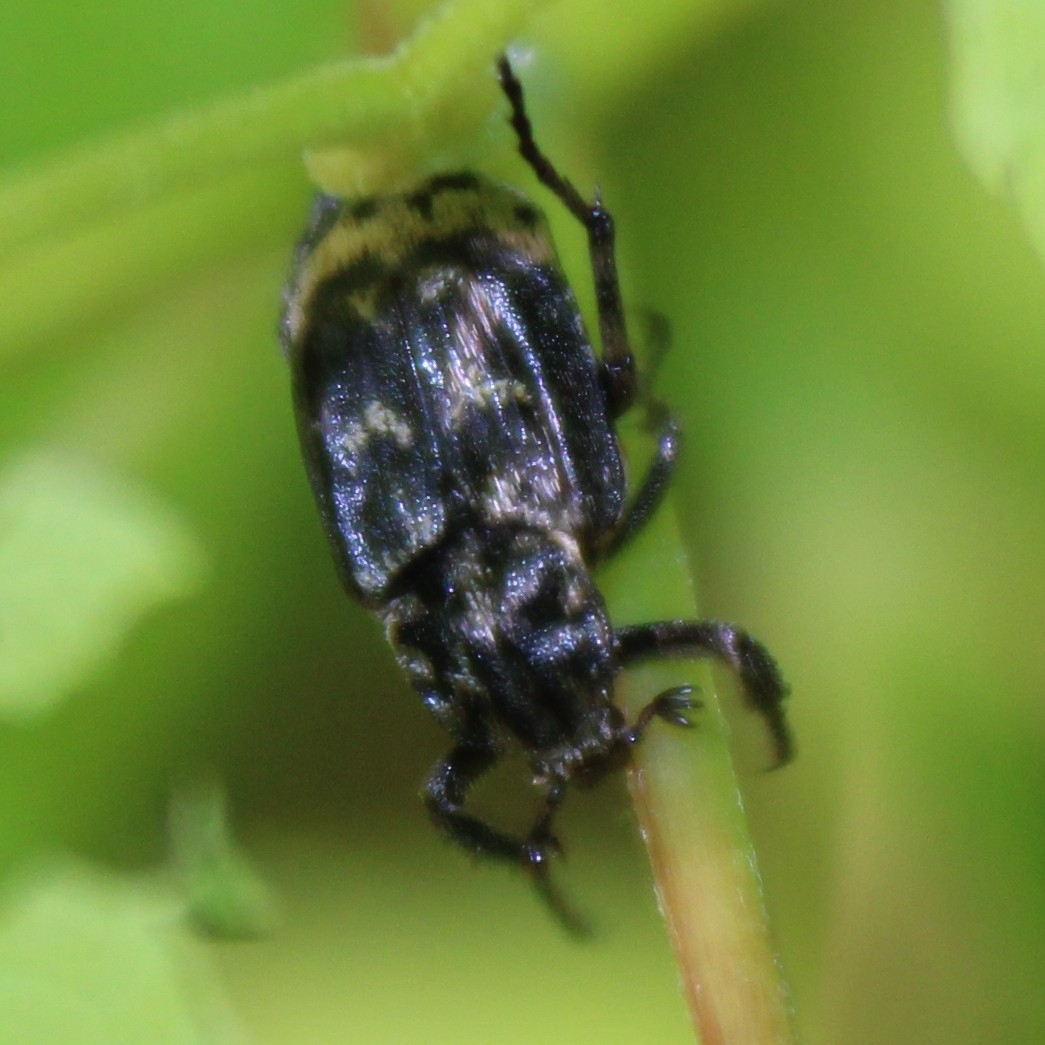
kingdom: Animalia
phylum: Arthropoda
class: Insecta
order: Coleoptera
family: Scarabaeidae
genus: Valgus
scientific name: Valgus hemipterus
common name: Bug flower chafer
